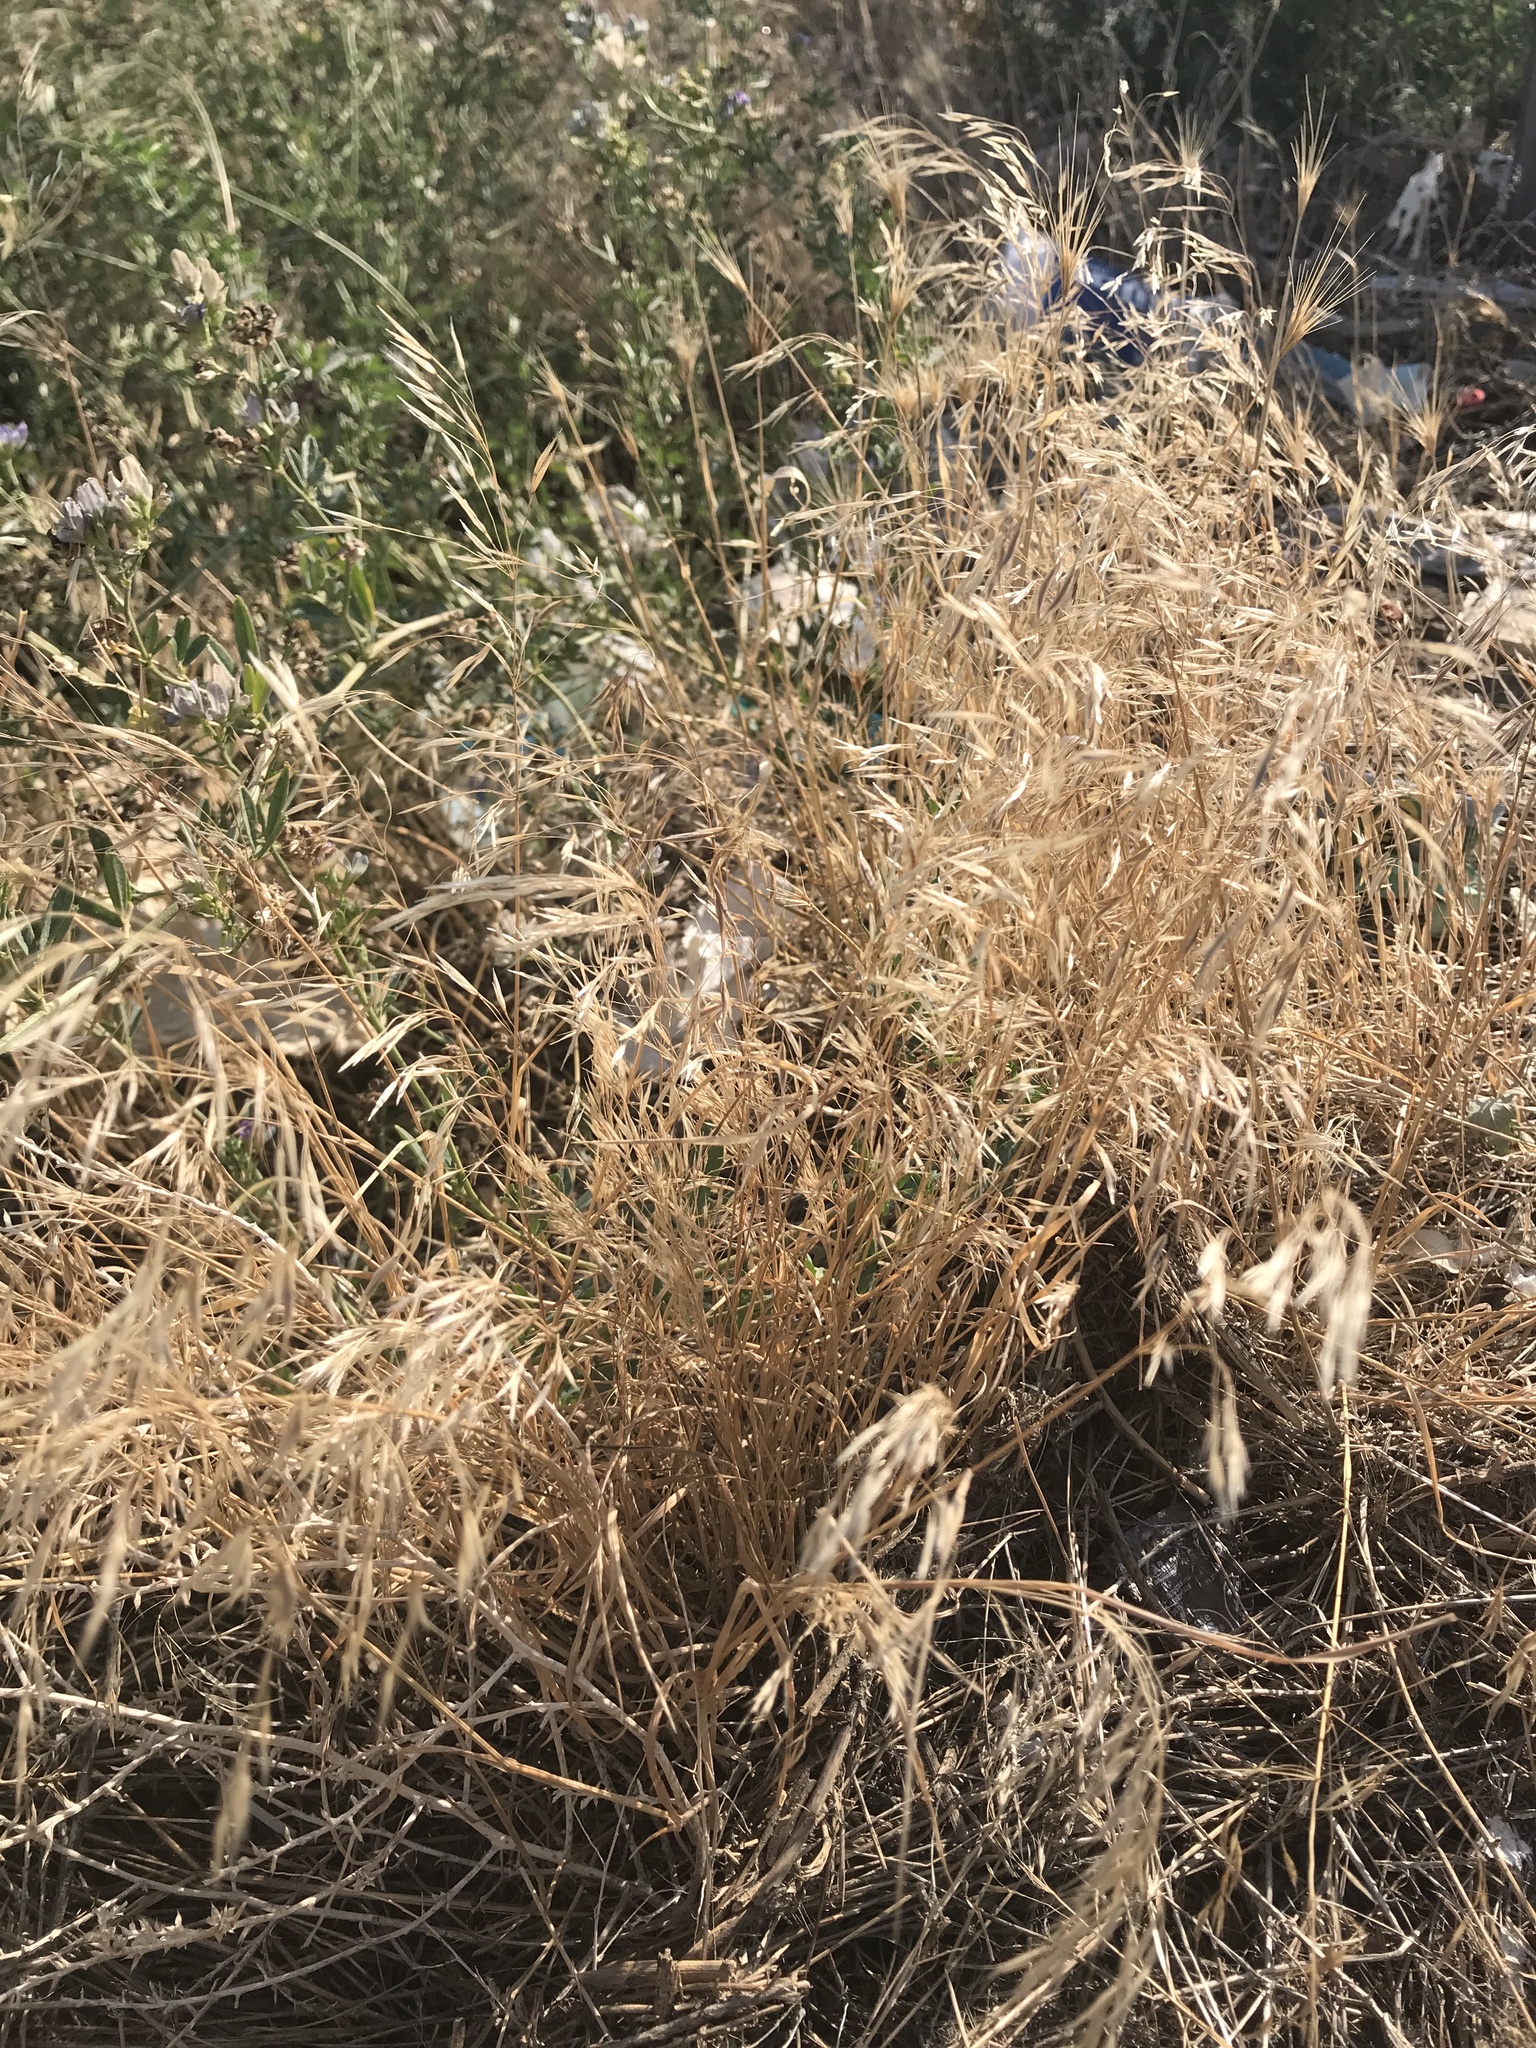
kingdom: Plantae
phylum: Tracheophyta
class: Liliopsida
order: Poales
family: Poaceae
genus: Bromus
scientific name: Bromus tectorum
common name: Cheatgrass
